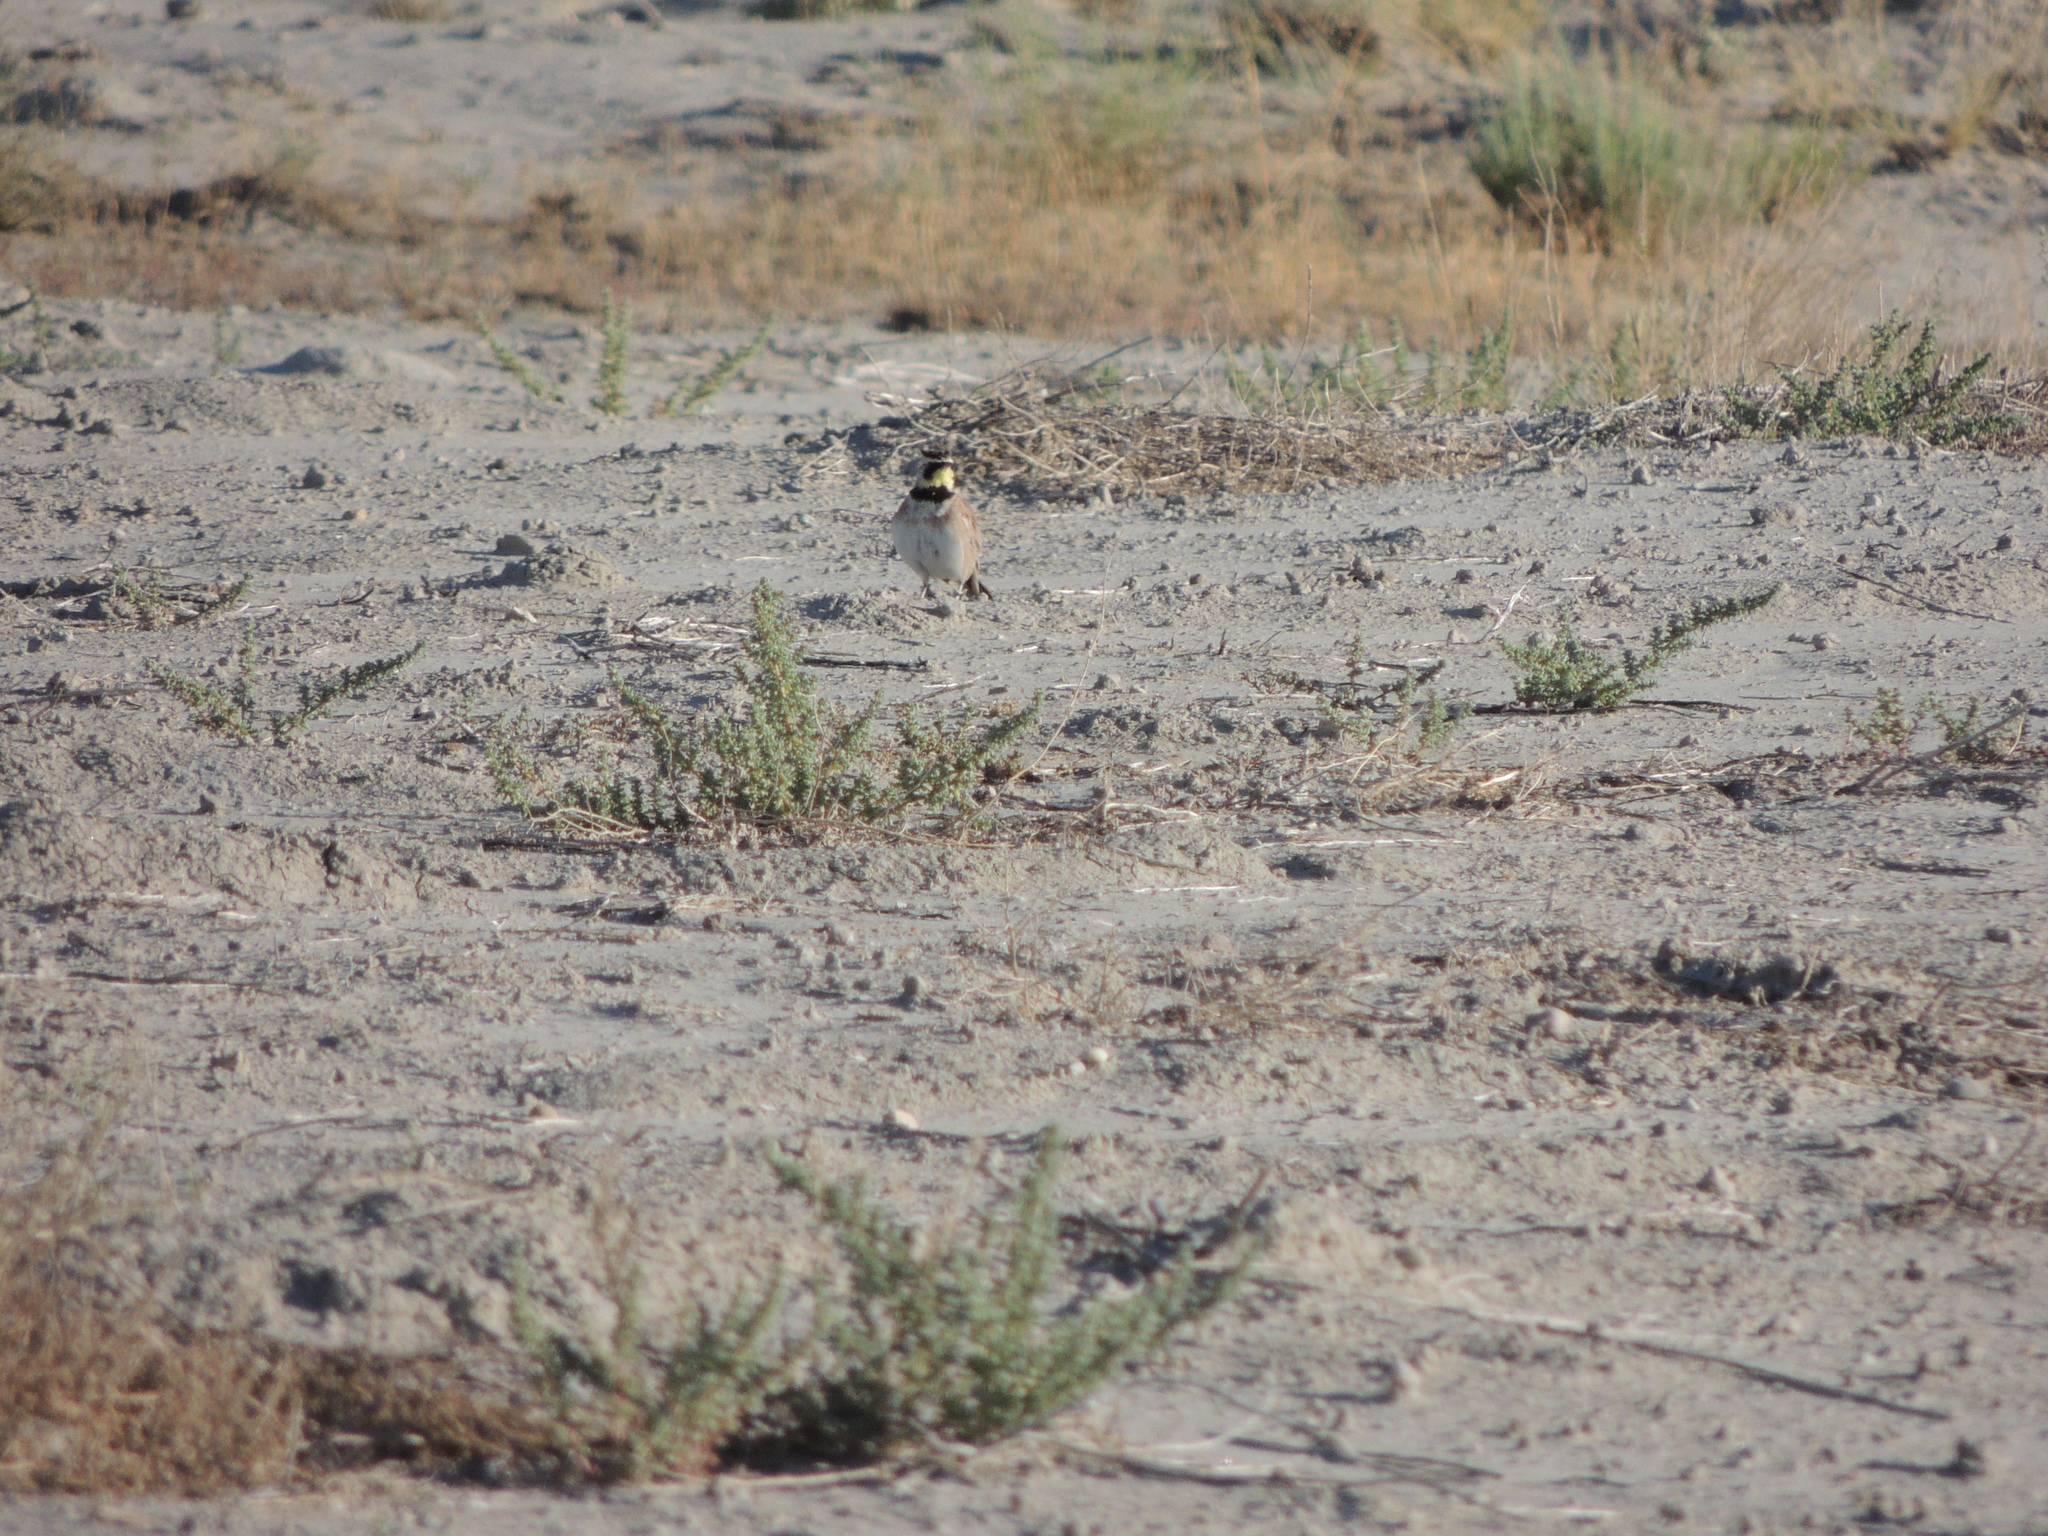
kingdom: Animalia
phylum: Chordata
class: Aves
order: Passeriformes
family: Alaudidae
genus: Eremophila
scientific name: Eremophila alpestris
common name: Horned lark
